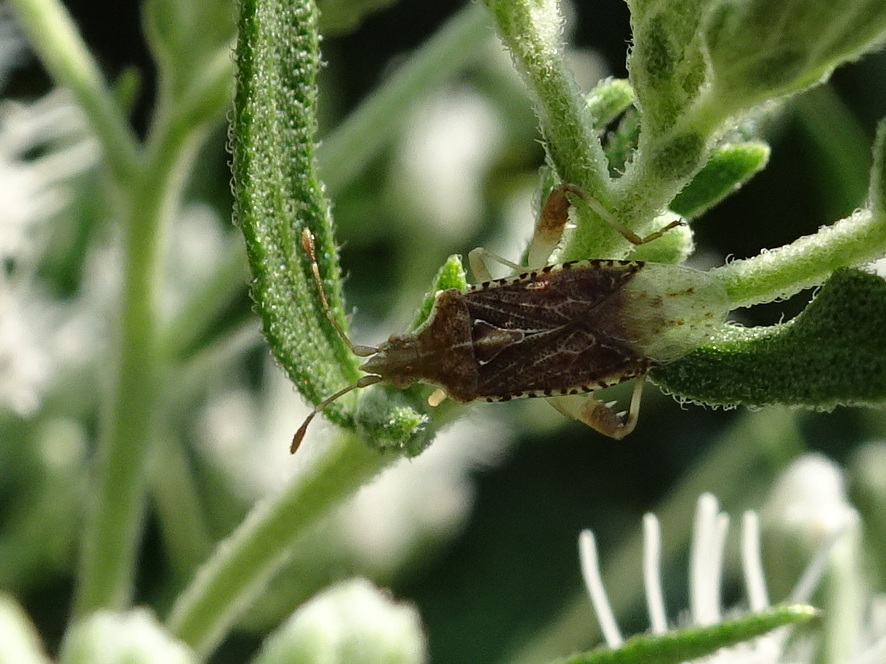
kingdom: Animalia
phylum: Arthropoda
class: Insecta
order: Hemiptera
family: Rhopalidae
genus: Harmostes
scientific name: Harmostes fraterculus
